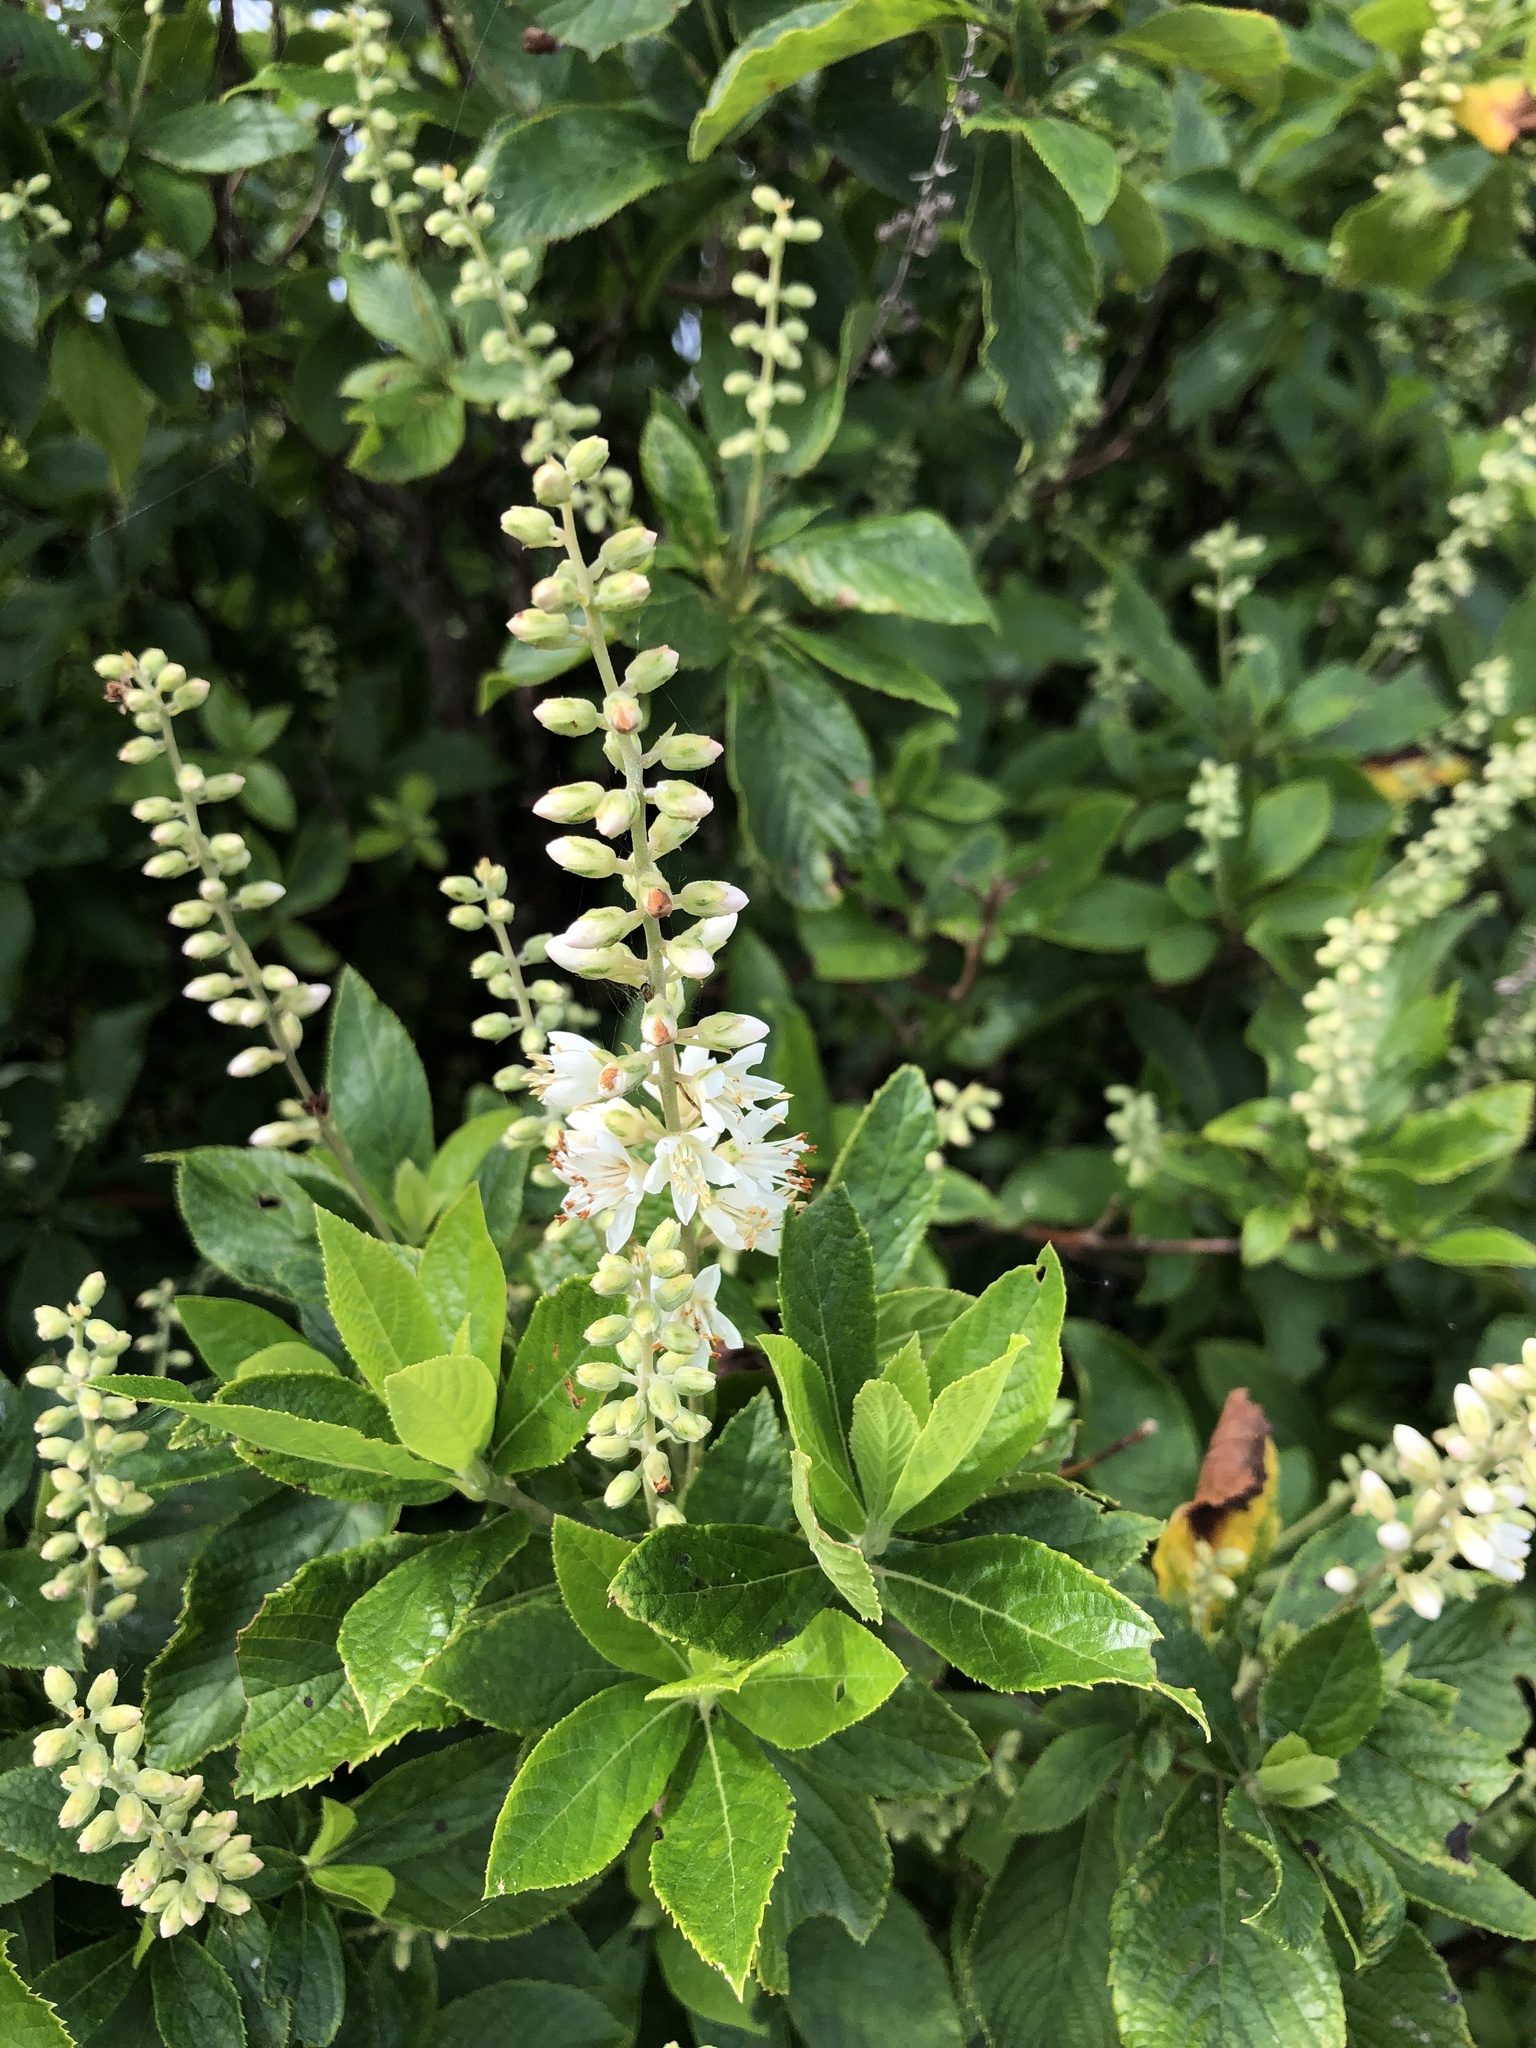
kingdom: Plantae
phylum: Tracheophyta
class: Magnoliopsida
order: Ericales
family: Clethraceae
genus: Clethra
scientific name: Clethra alnifolia
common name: Sweet pepperbush
